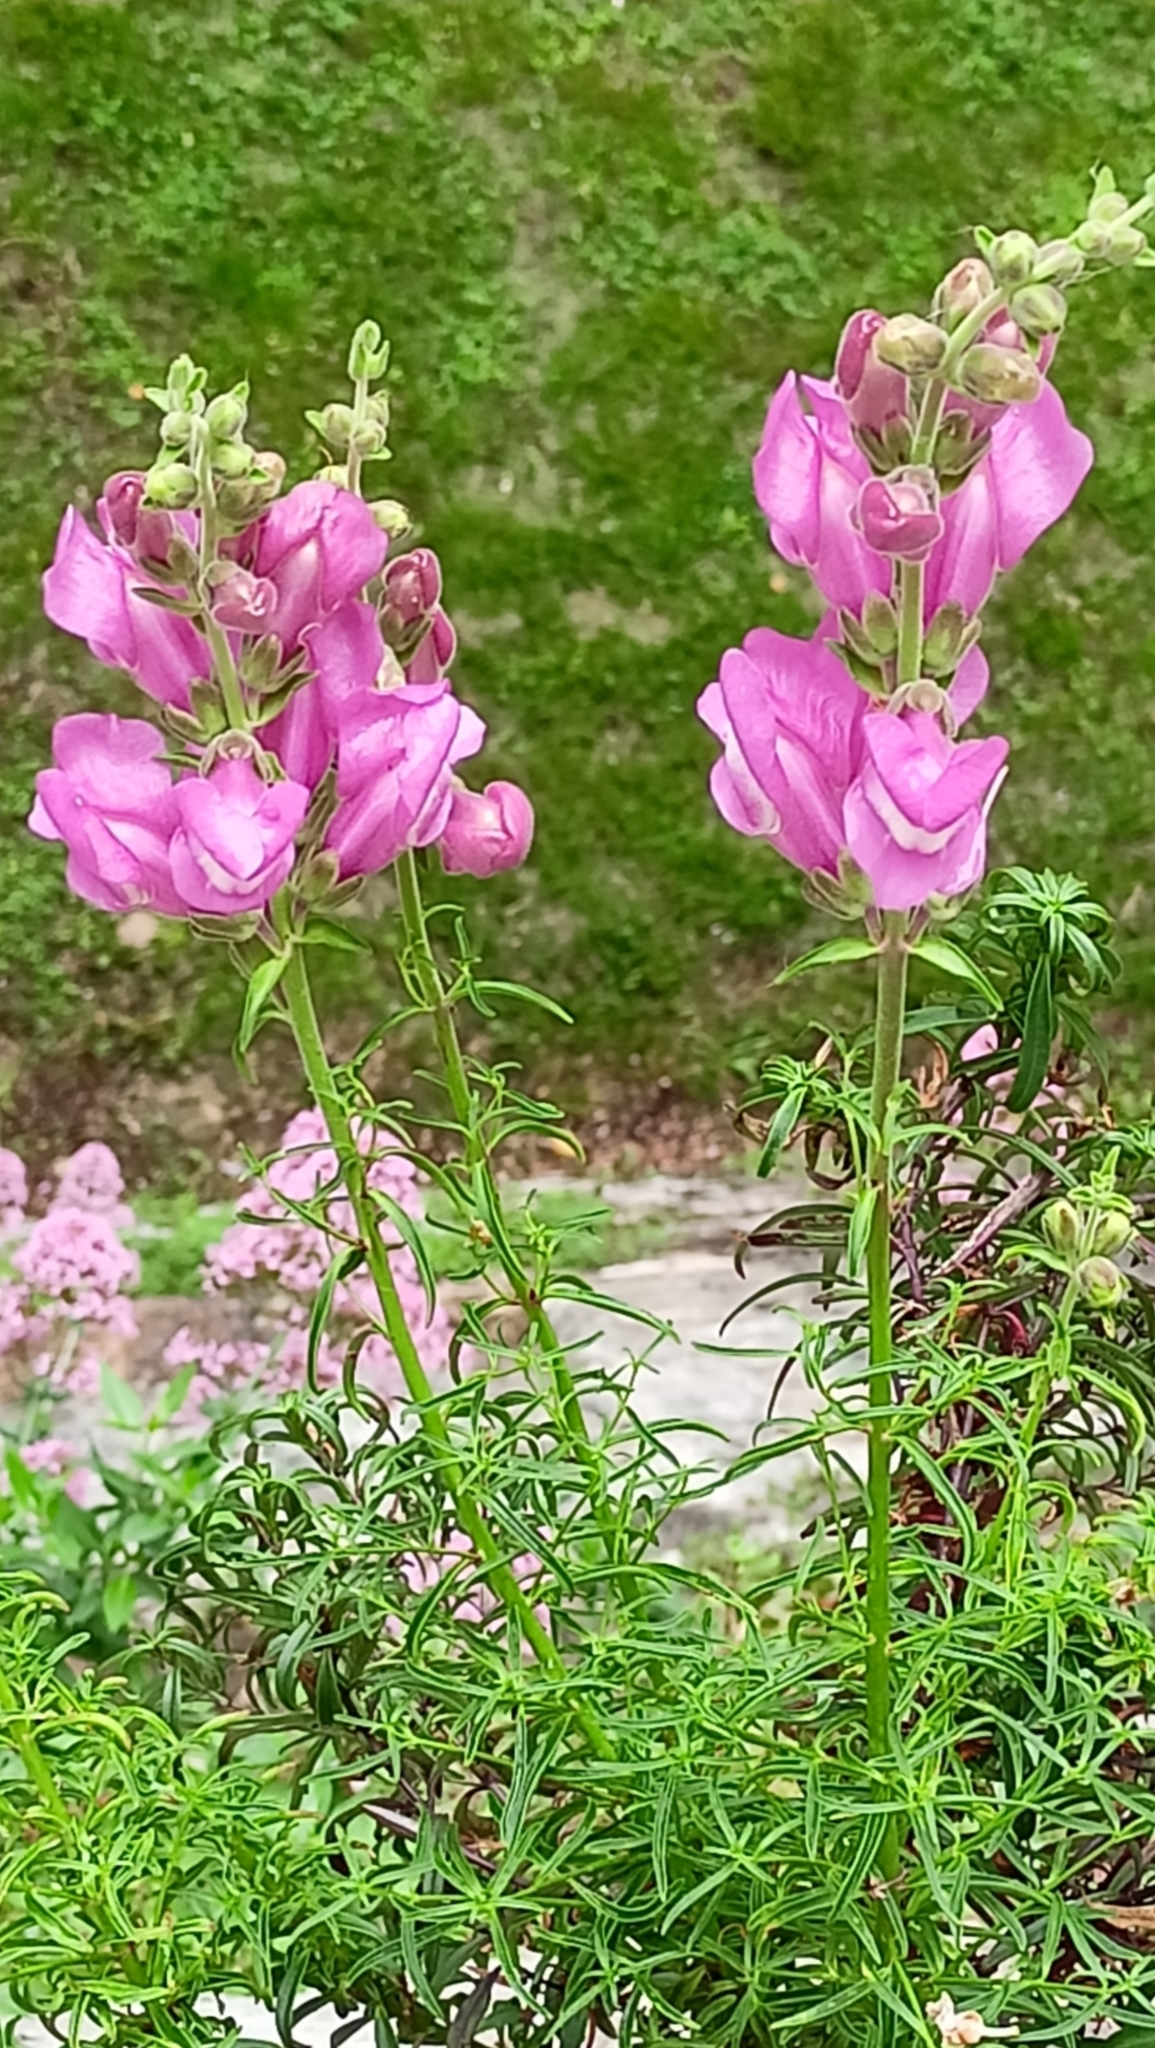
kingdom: Plantae
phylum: Tracheophyta
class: Magnoliopsida
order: Lamiales
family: Plantaginaceae
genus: Antirrhinum
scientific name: Antirrhinum tortuosum
